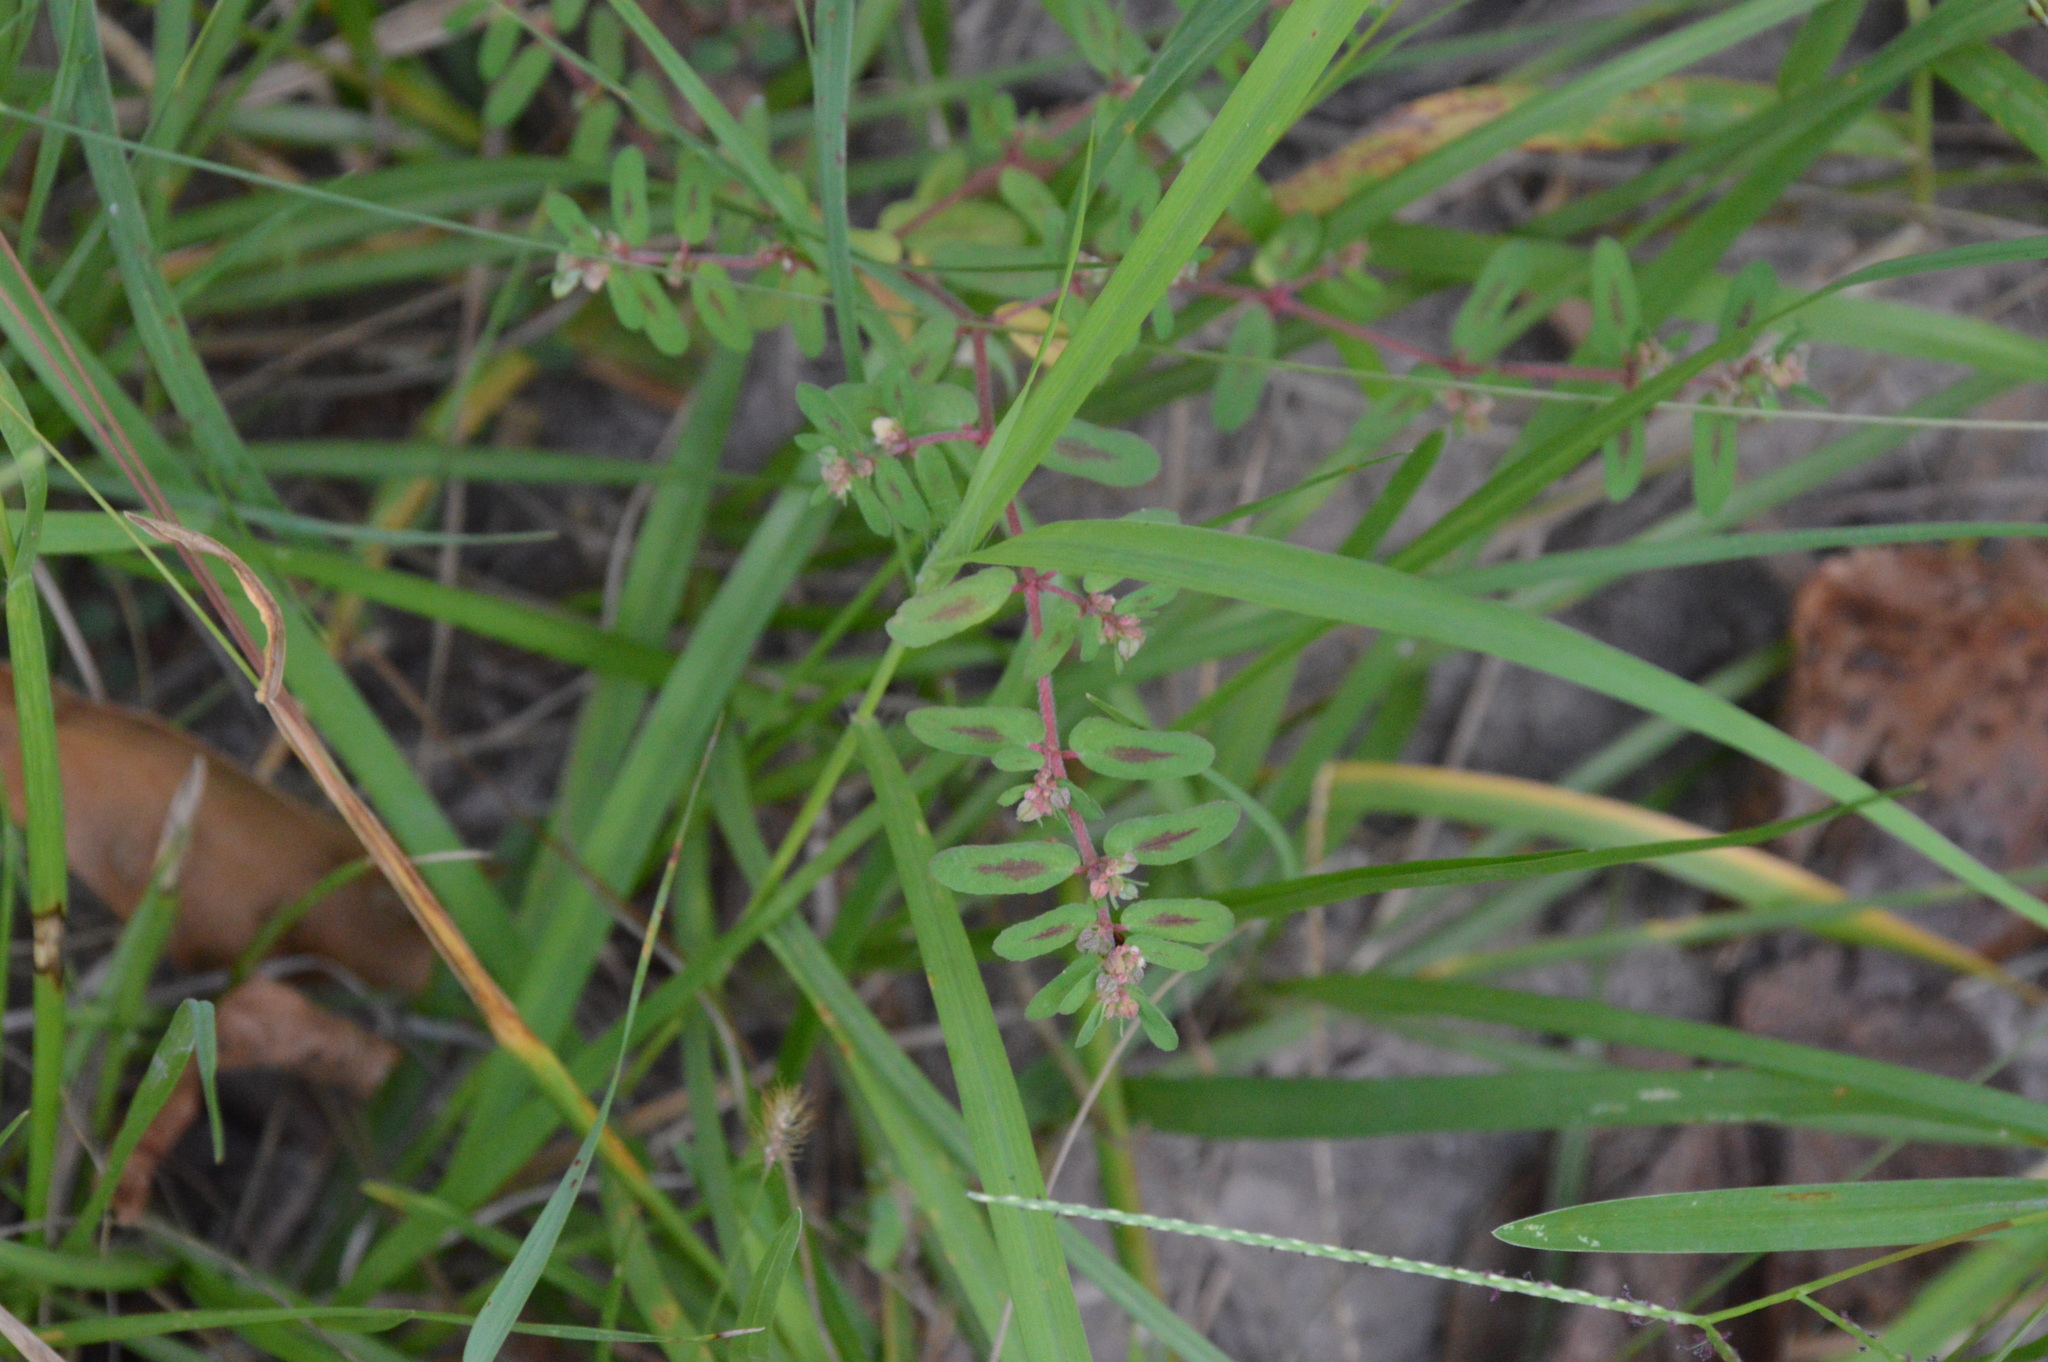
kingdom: Plantae
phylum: Tracheophyta
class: Magnoliopsida
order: Malpighiales
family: Euphorbiaceae
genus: Euphorbia
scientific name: Euphorbia maculata
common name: Spotted spurge
